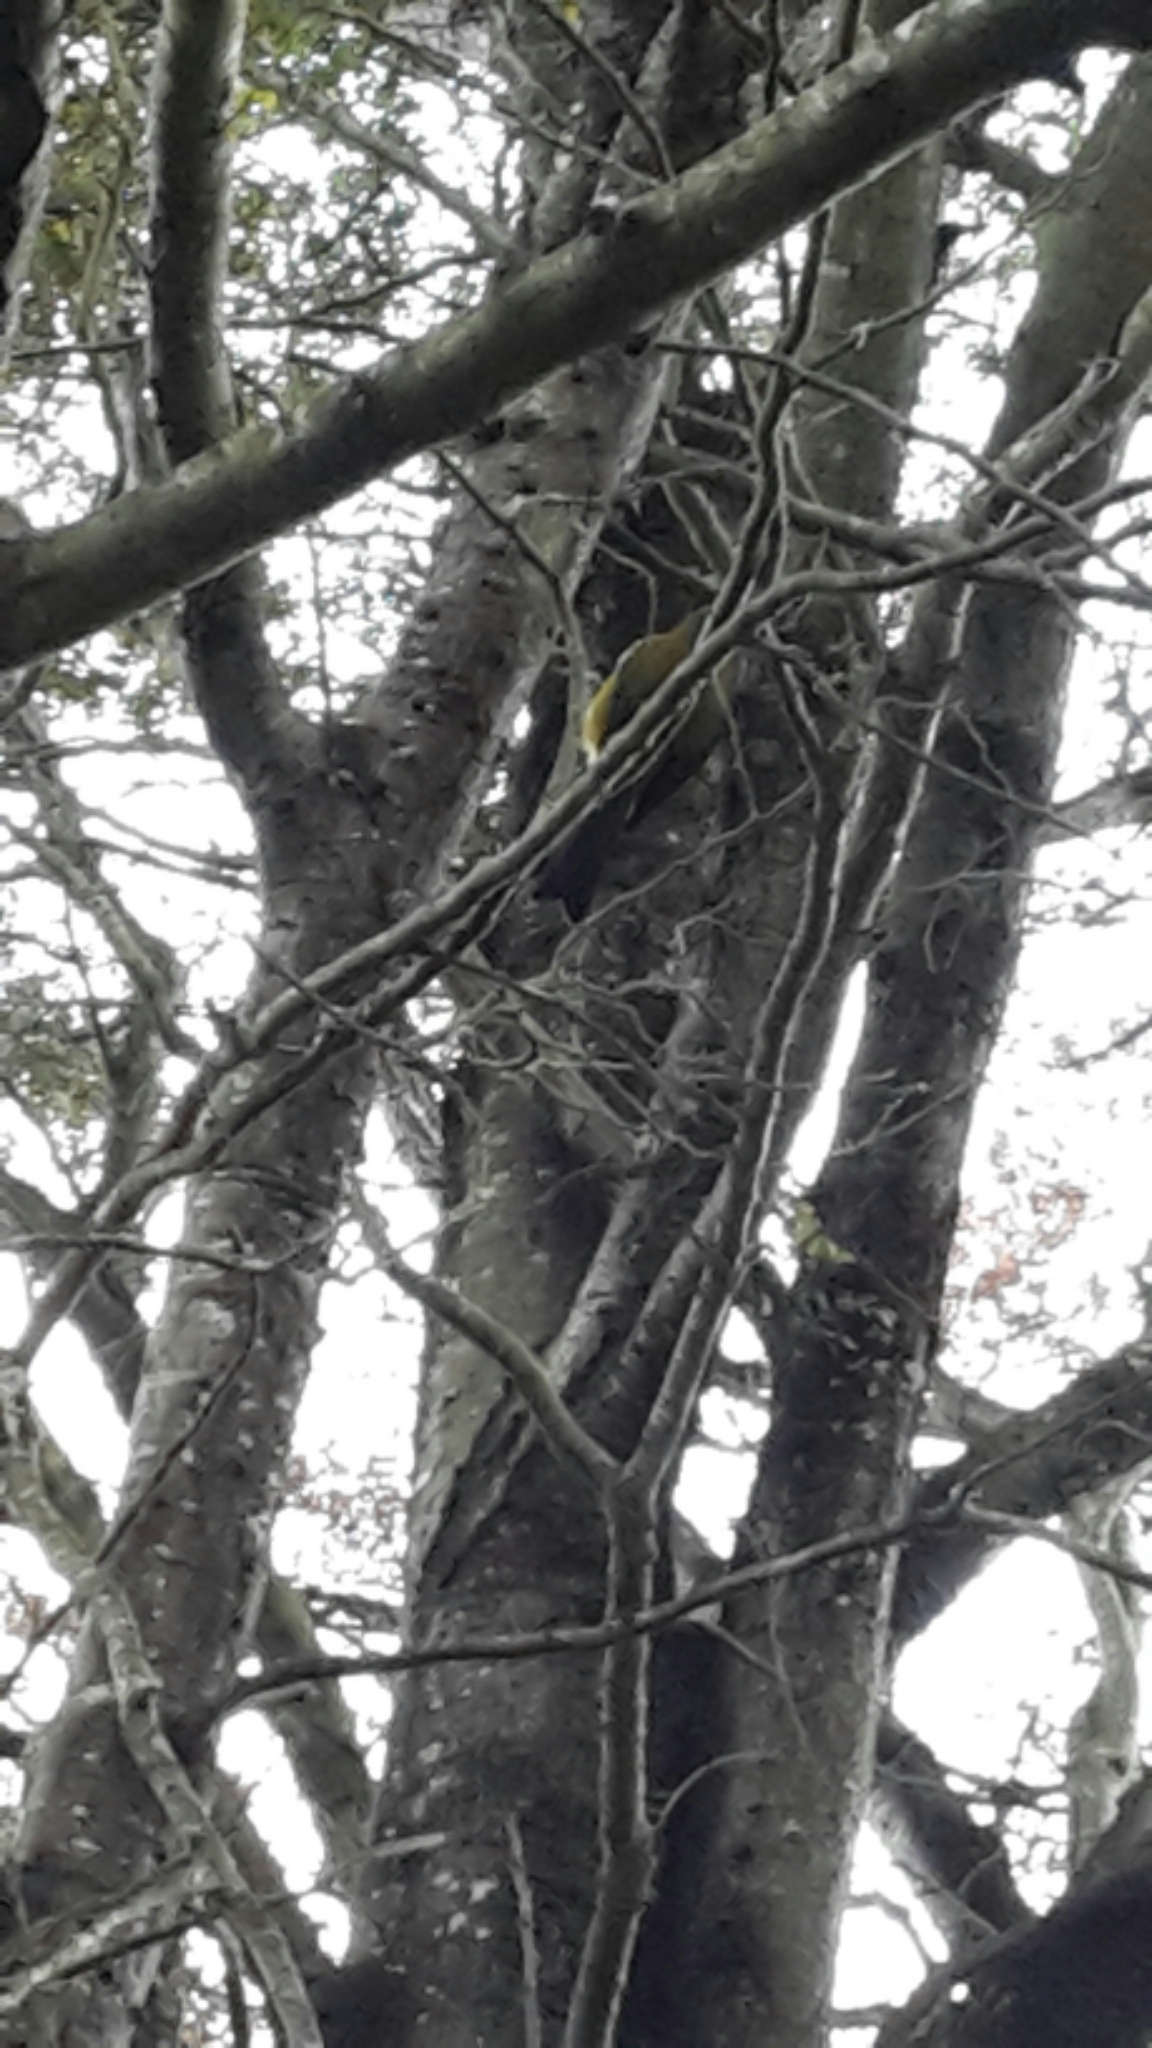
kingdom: Animalia
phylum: Chordata
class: Aves
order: Passeriformes
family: Meliphagidae
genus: Anthornis
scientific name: Anthornis melanura
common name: New zealand bellbird
